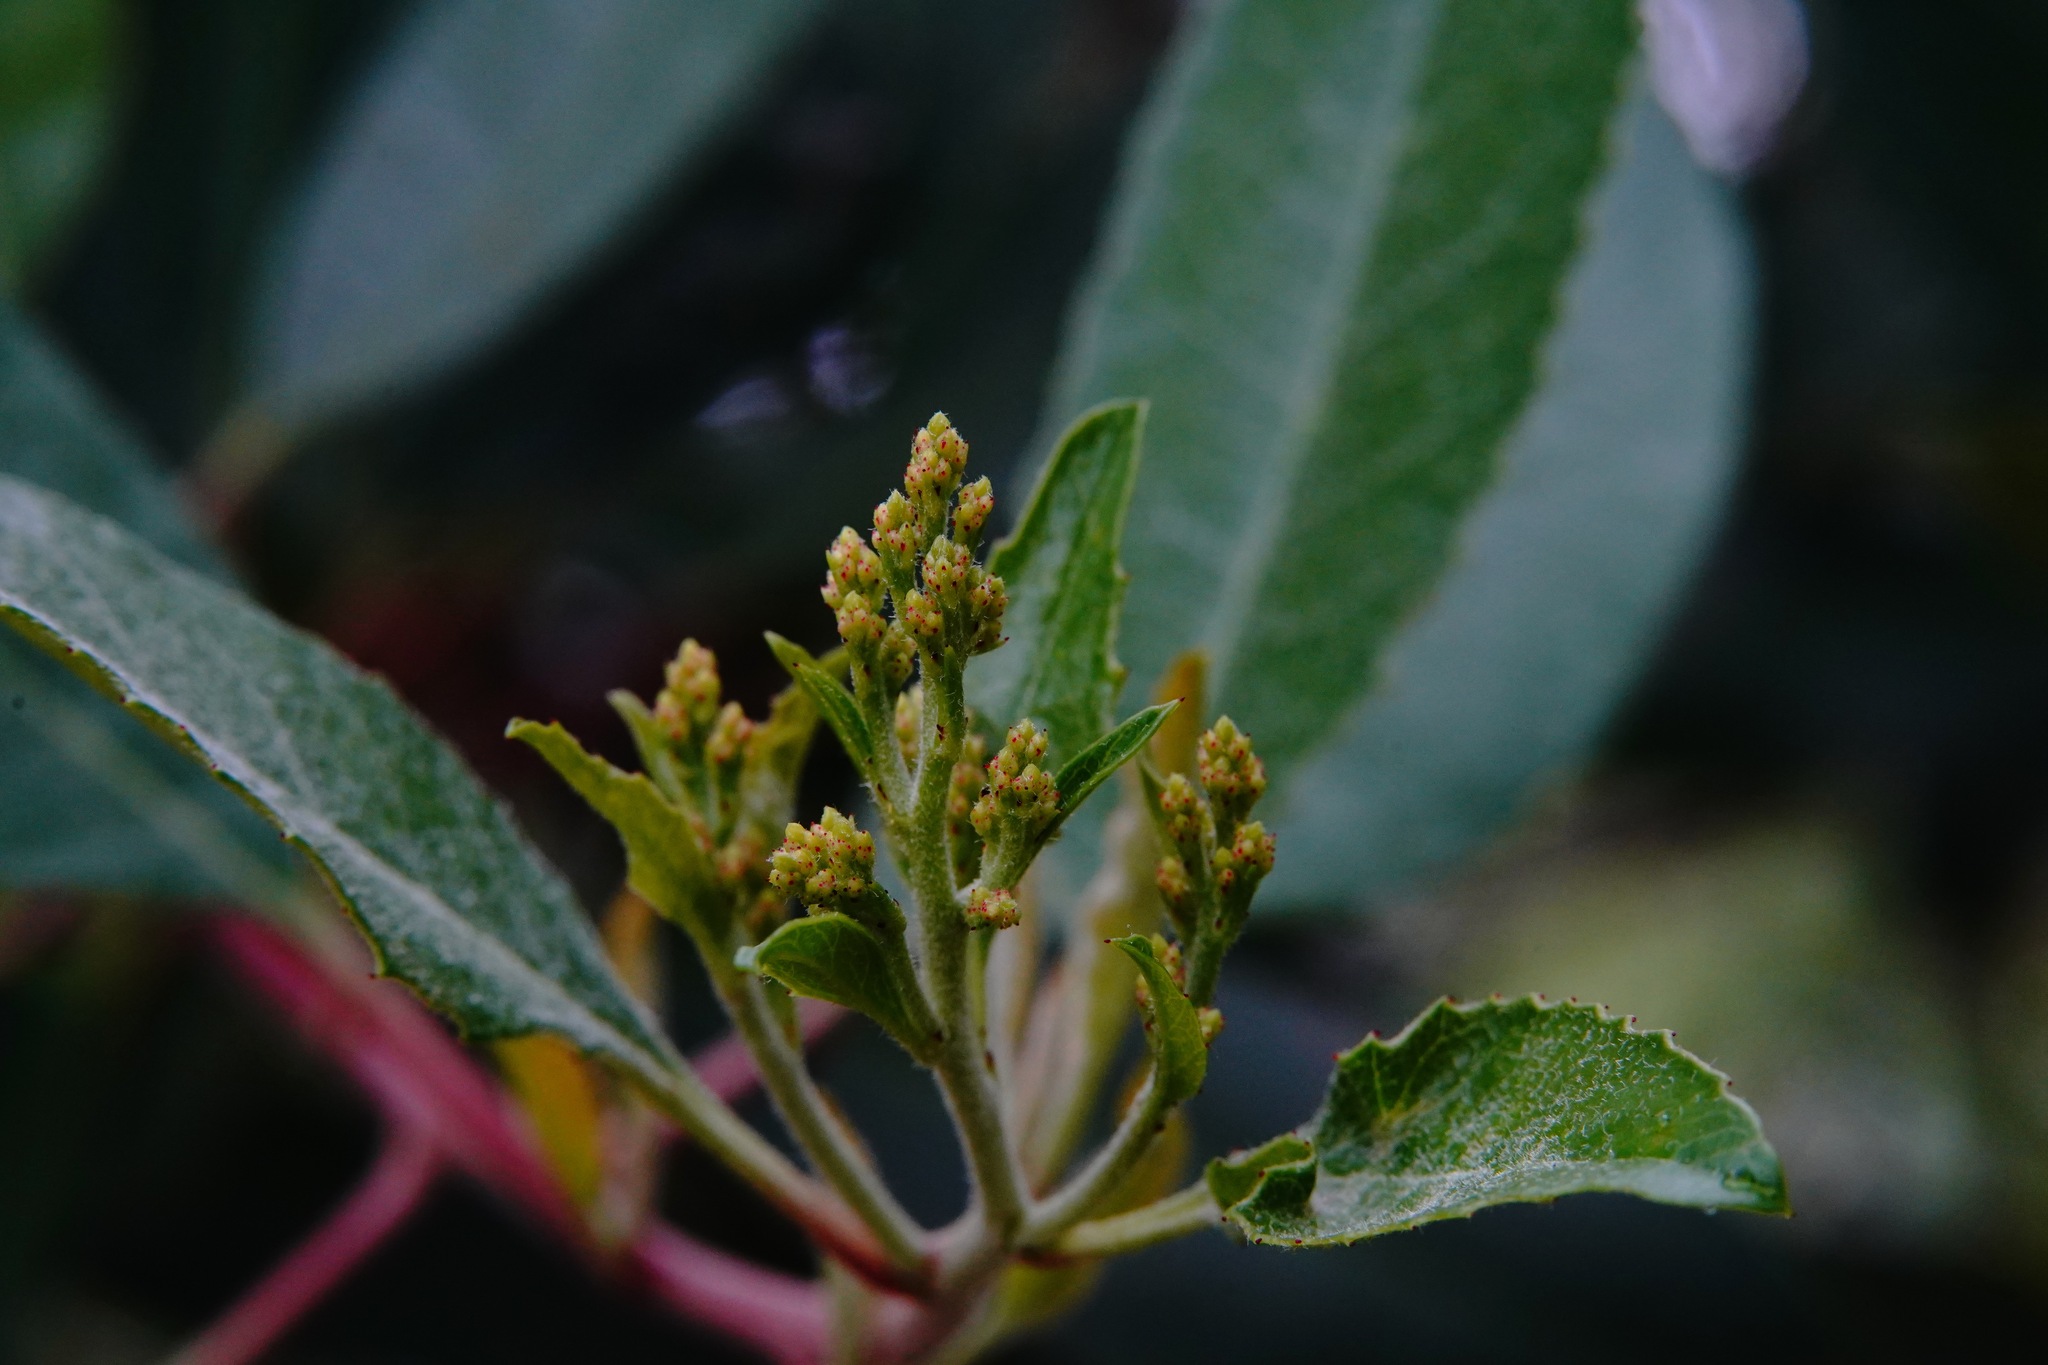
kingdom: Plantae
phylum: Tracheophyta
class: Magnoliopsida
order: Rosales
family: Rosaceae
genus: Heteromeles
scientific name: Heteromeles arbutifolia
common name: California-holly
